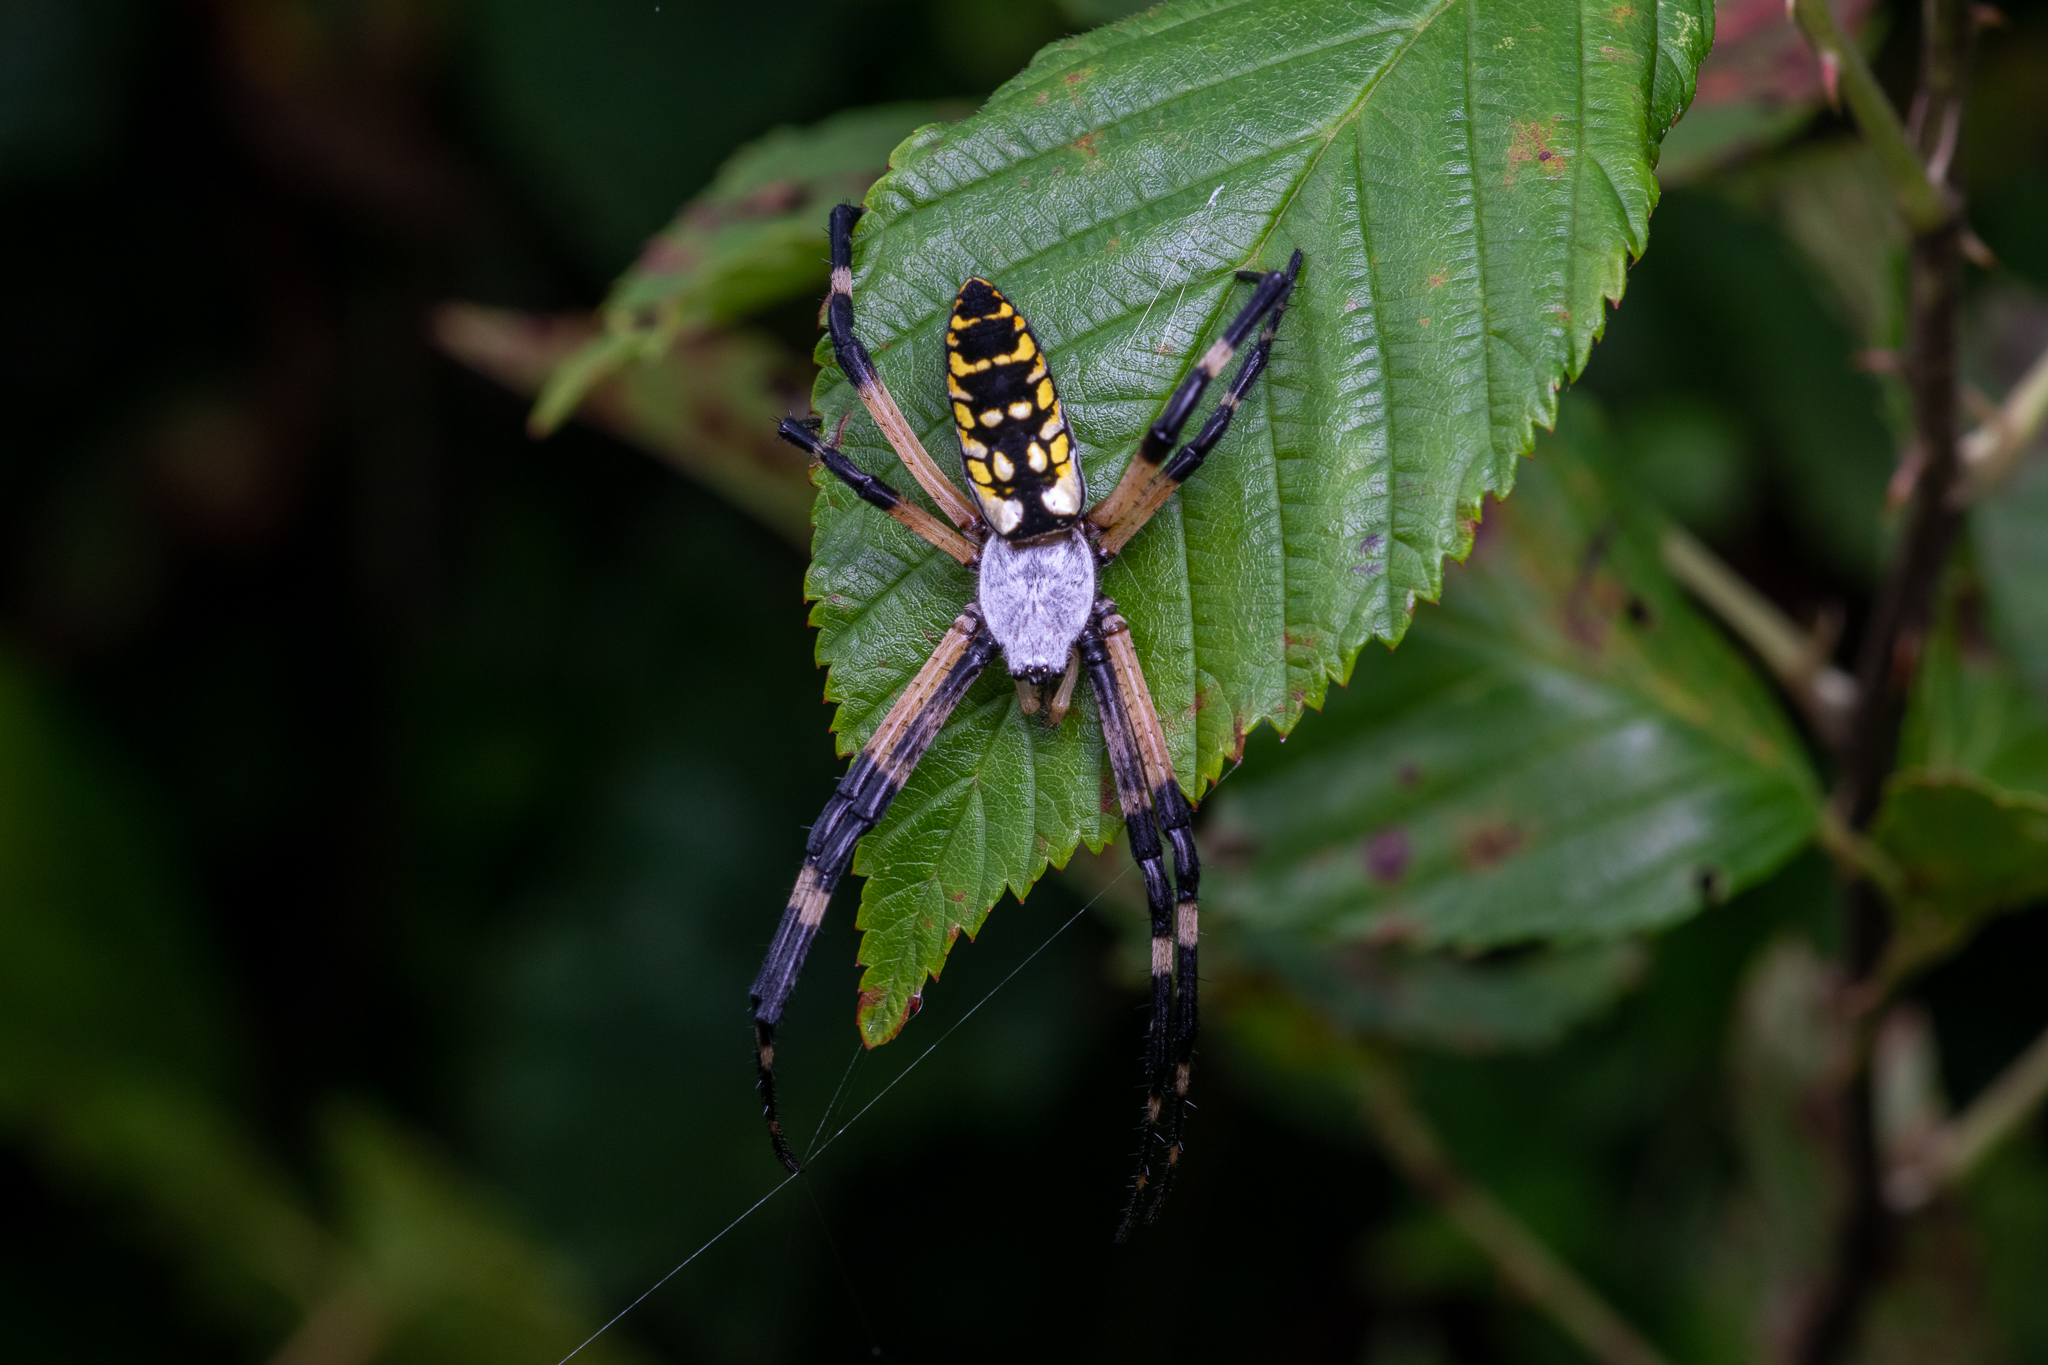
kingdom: Animalia
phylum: Arthropoda
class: Arachnida
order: Araneae
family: Araneidae
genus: Argiope
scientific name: Argiope aurantia
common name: Orb weavers
